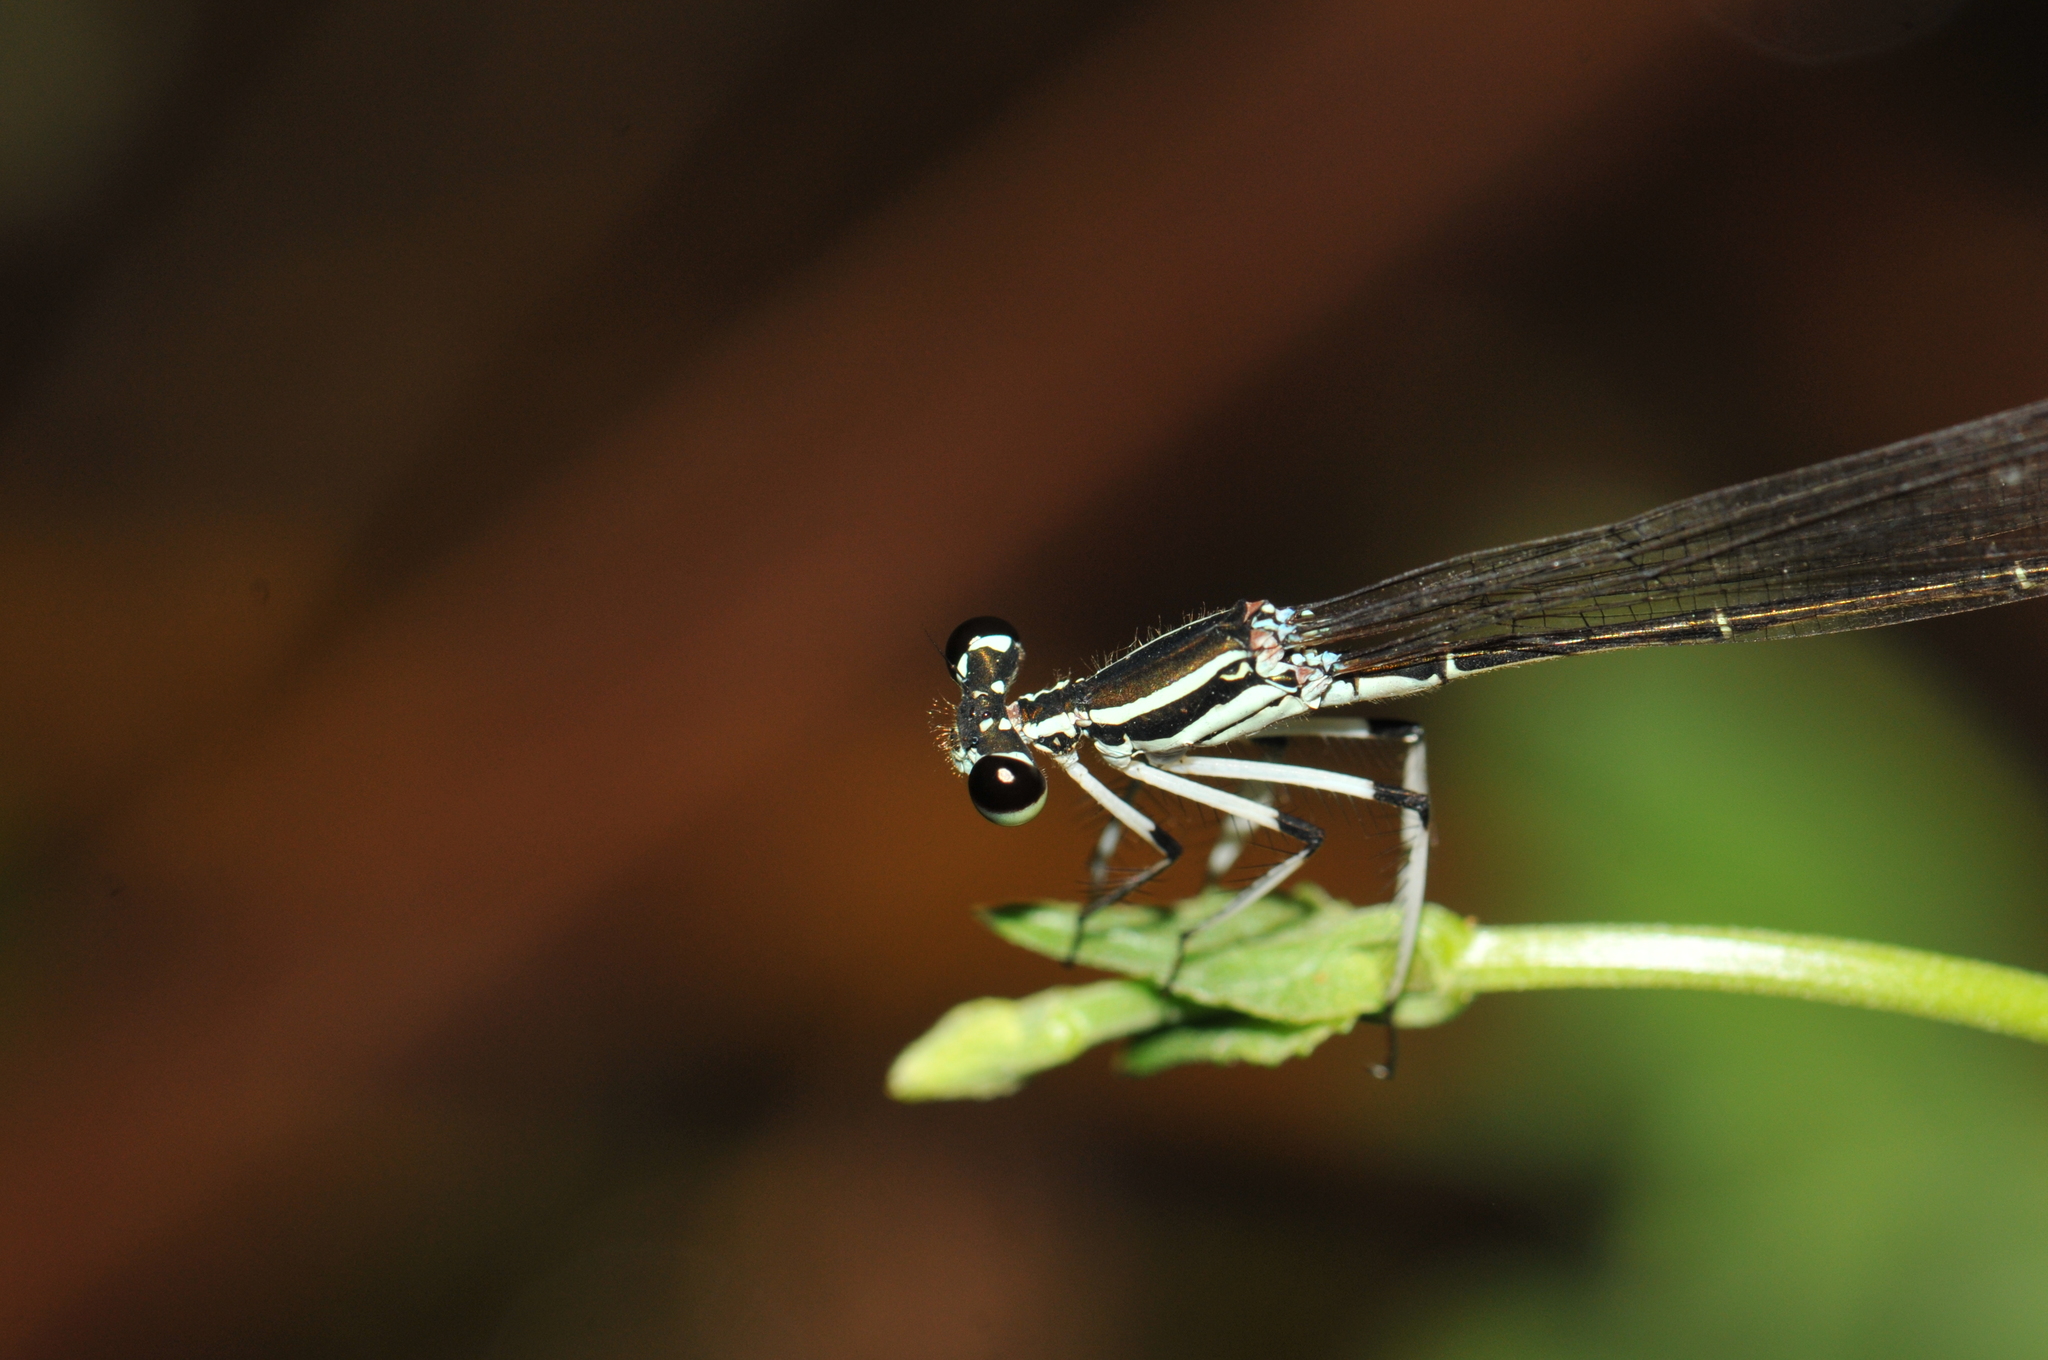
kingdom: Animalia
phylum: Arthropoda
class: Insecta
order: Odonata
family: Platycnemididae
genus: Pseudocopera
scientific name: Pseudocopera ciliata
